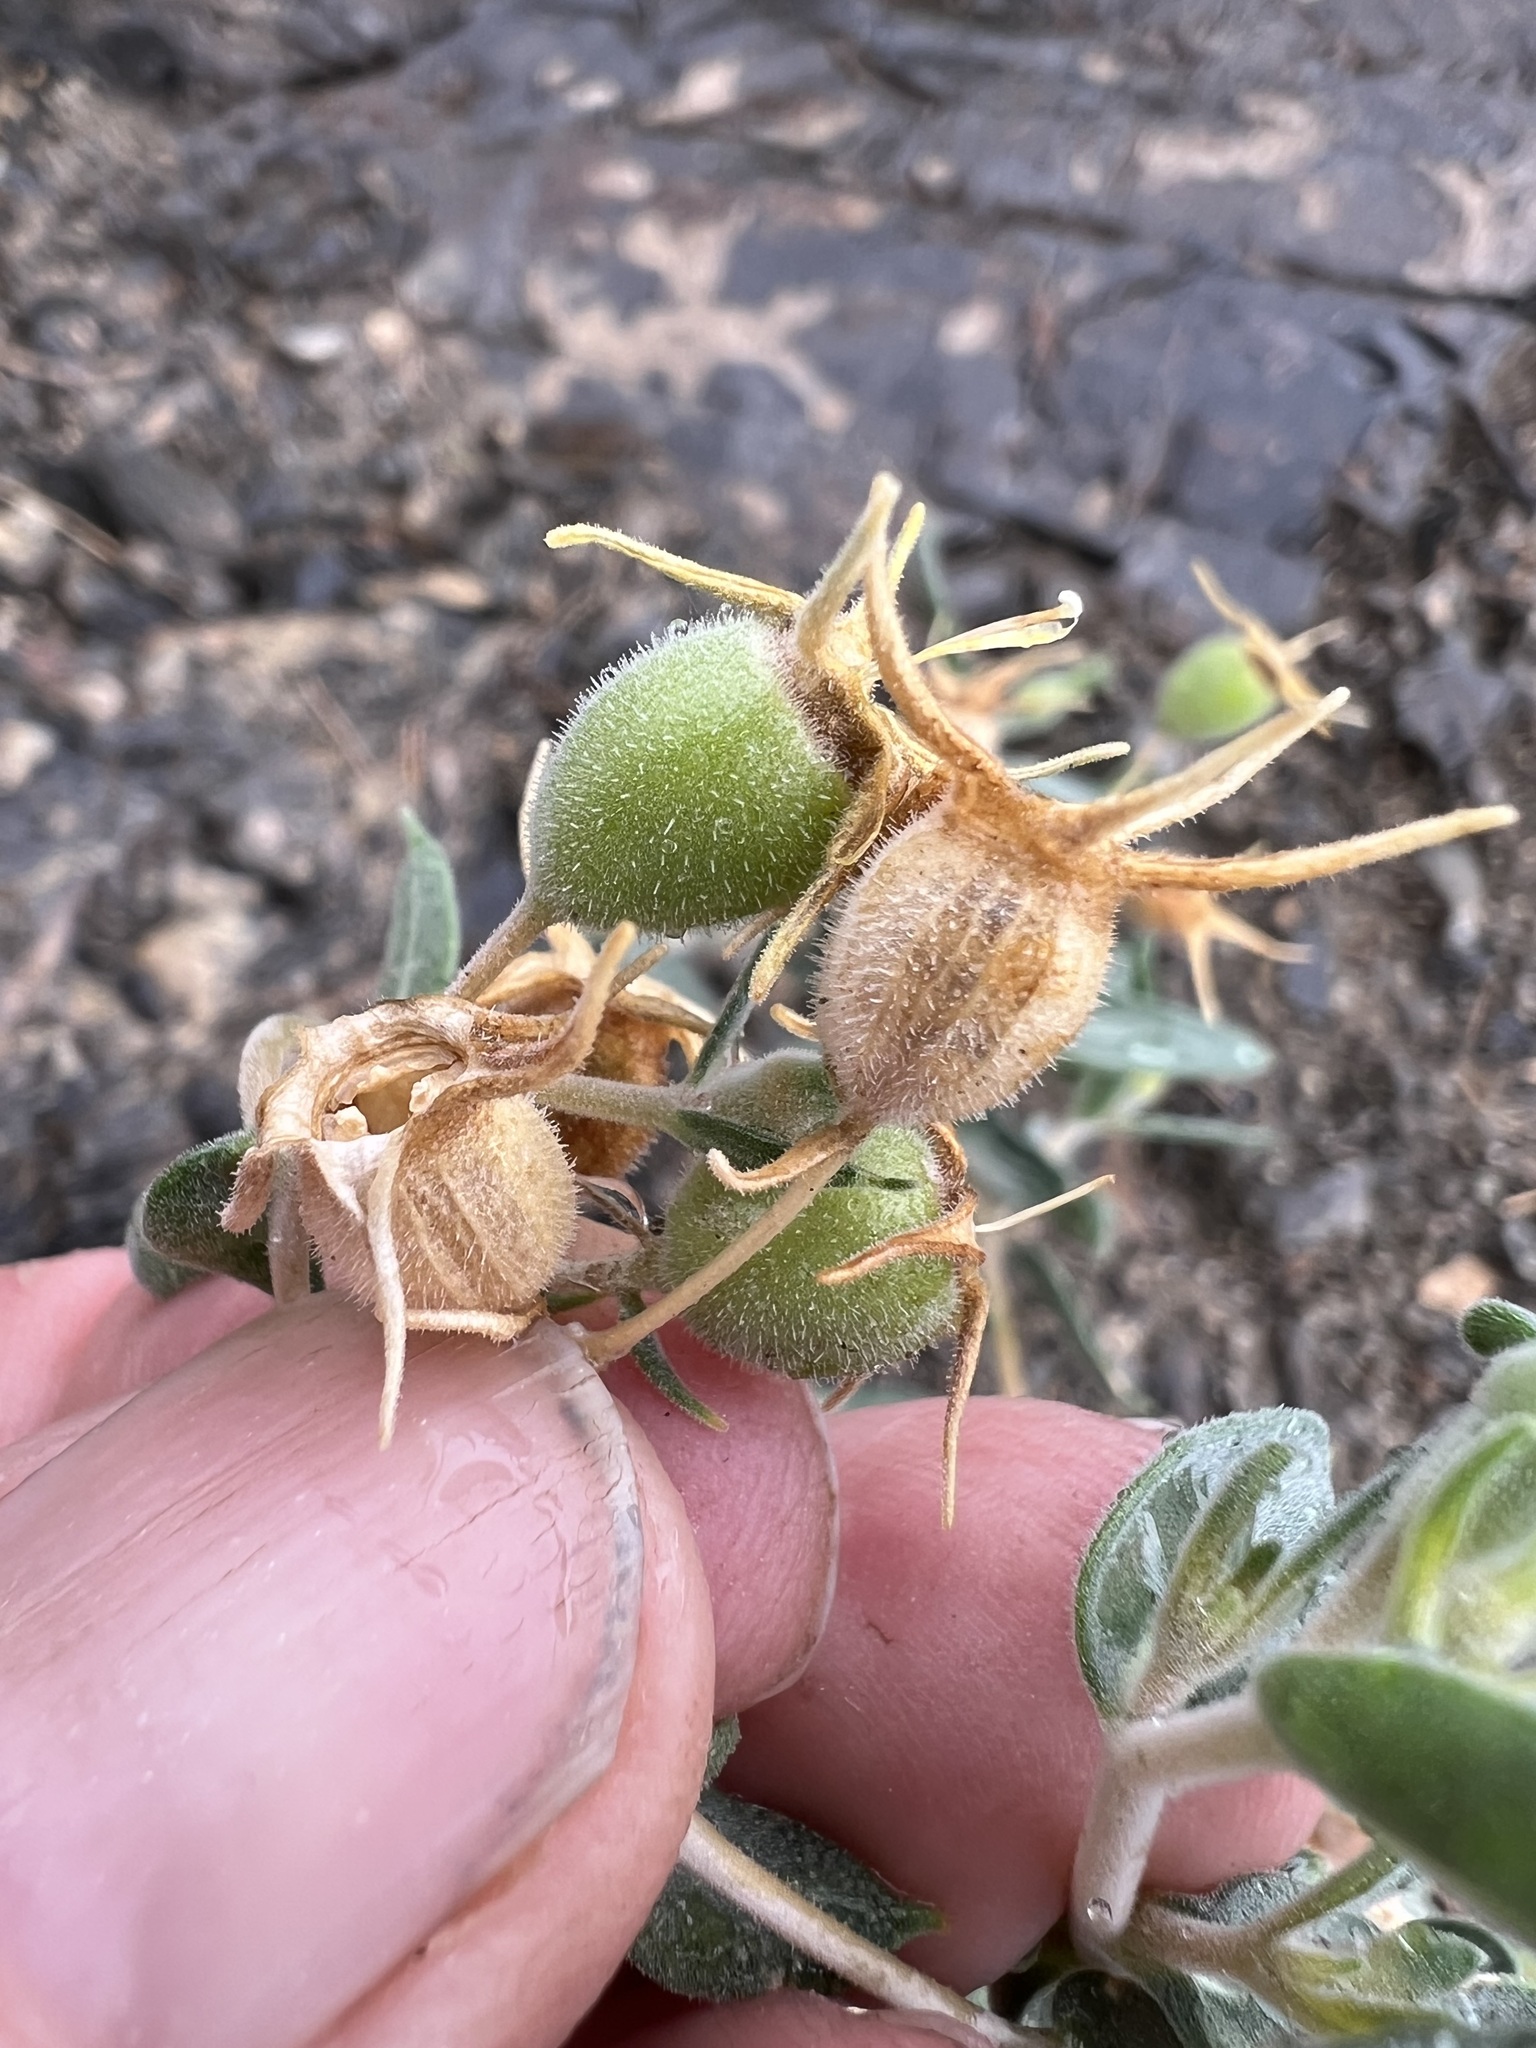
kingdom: Plantae
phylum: Tracheophyta
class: Magnoliopsida
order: Cornales
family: Loasaceae
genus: Mentzelia
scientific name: Mentzelia oreophila
